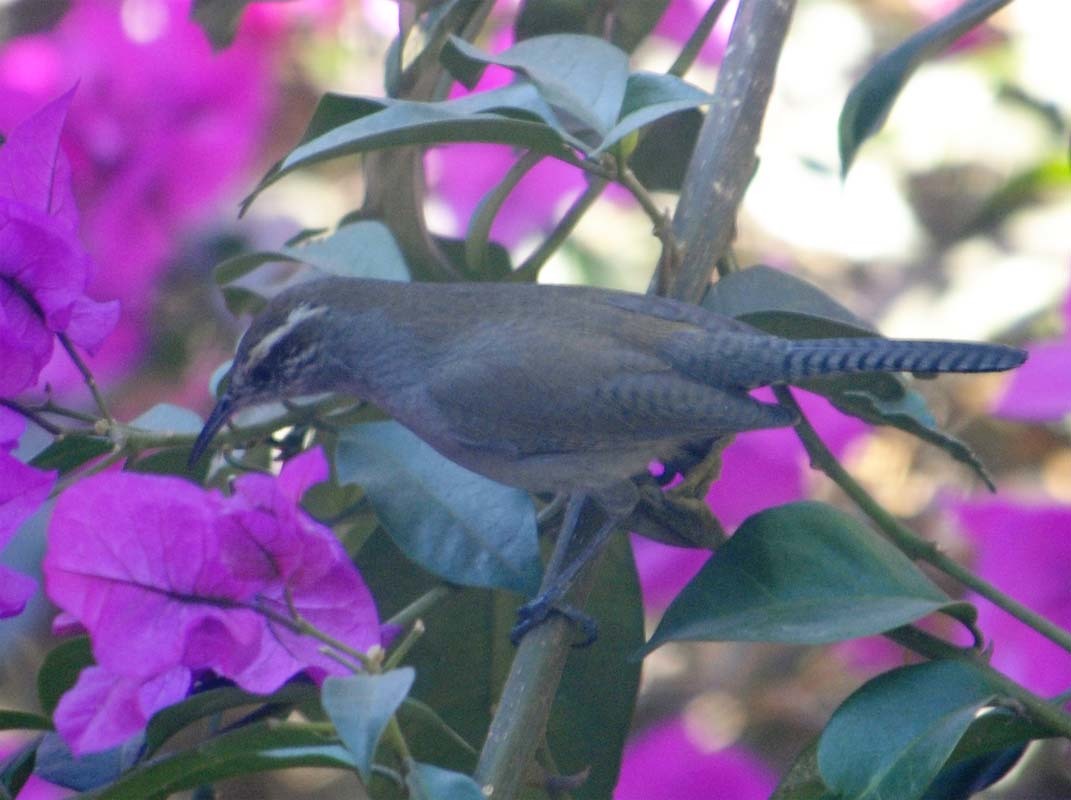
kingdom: Animalia
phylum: Chordata
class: Aves
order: Passeriformes
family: Troglodytidae
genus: Thryomanes
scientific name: Thryomanes bewickii
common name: Bewick's wren
